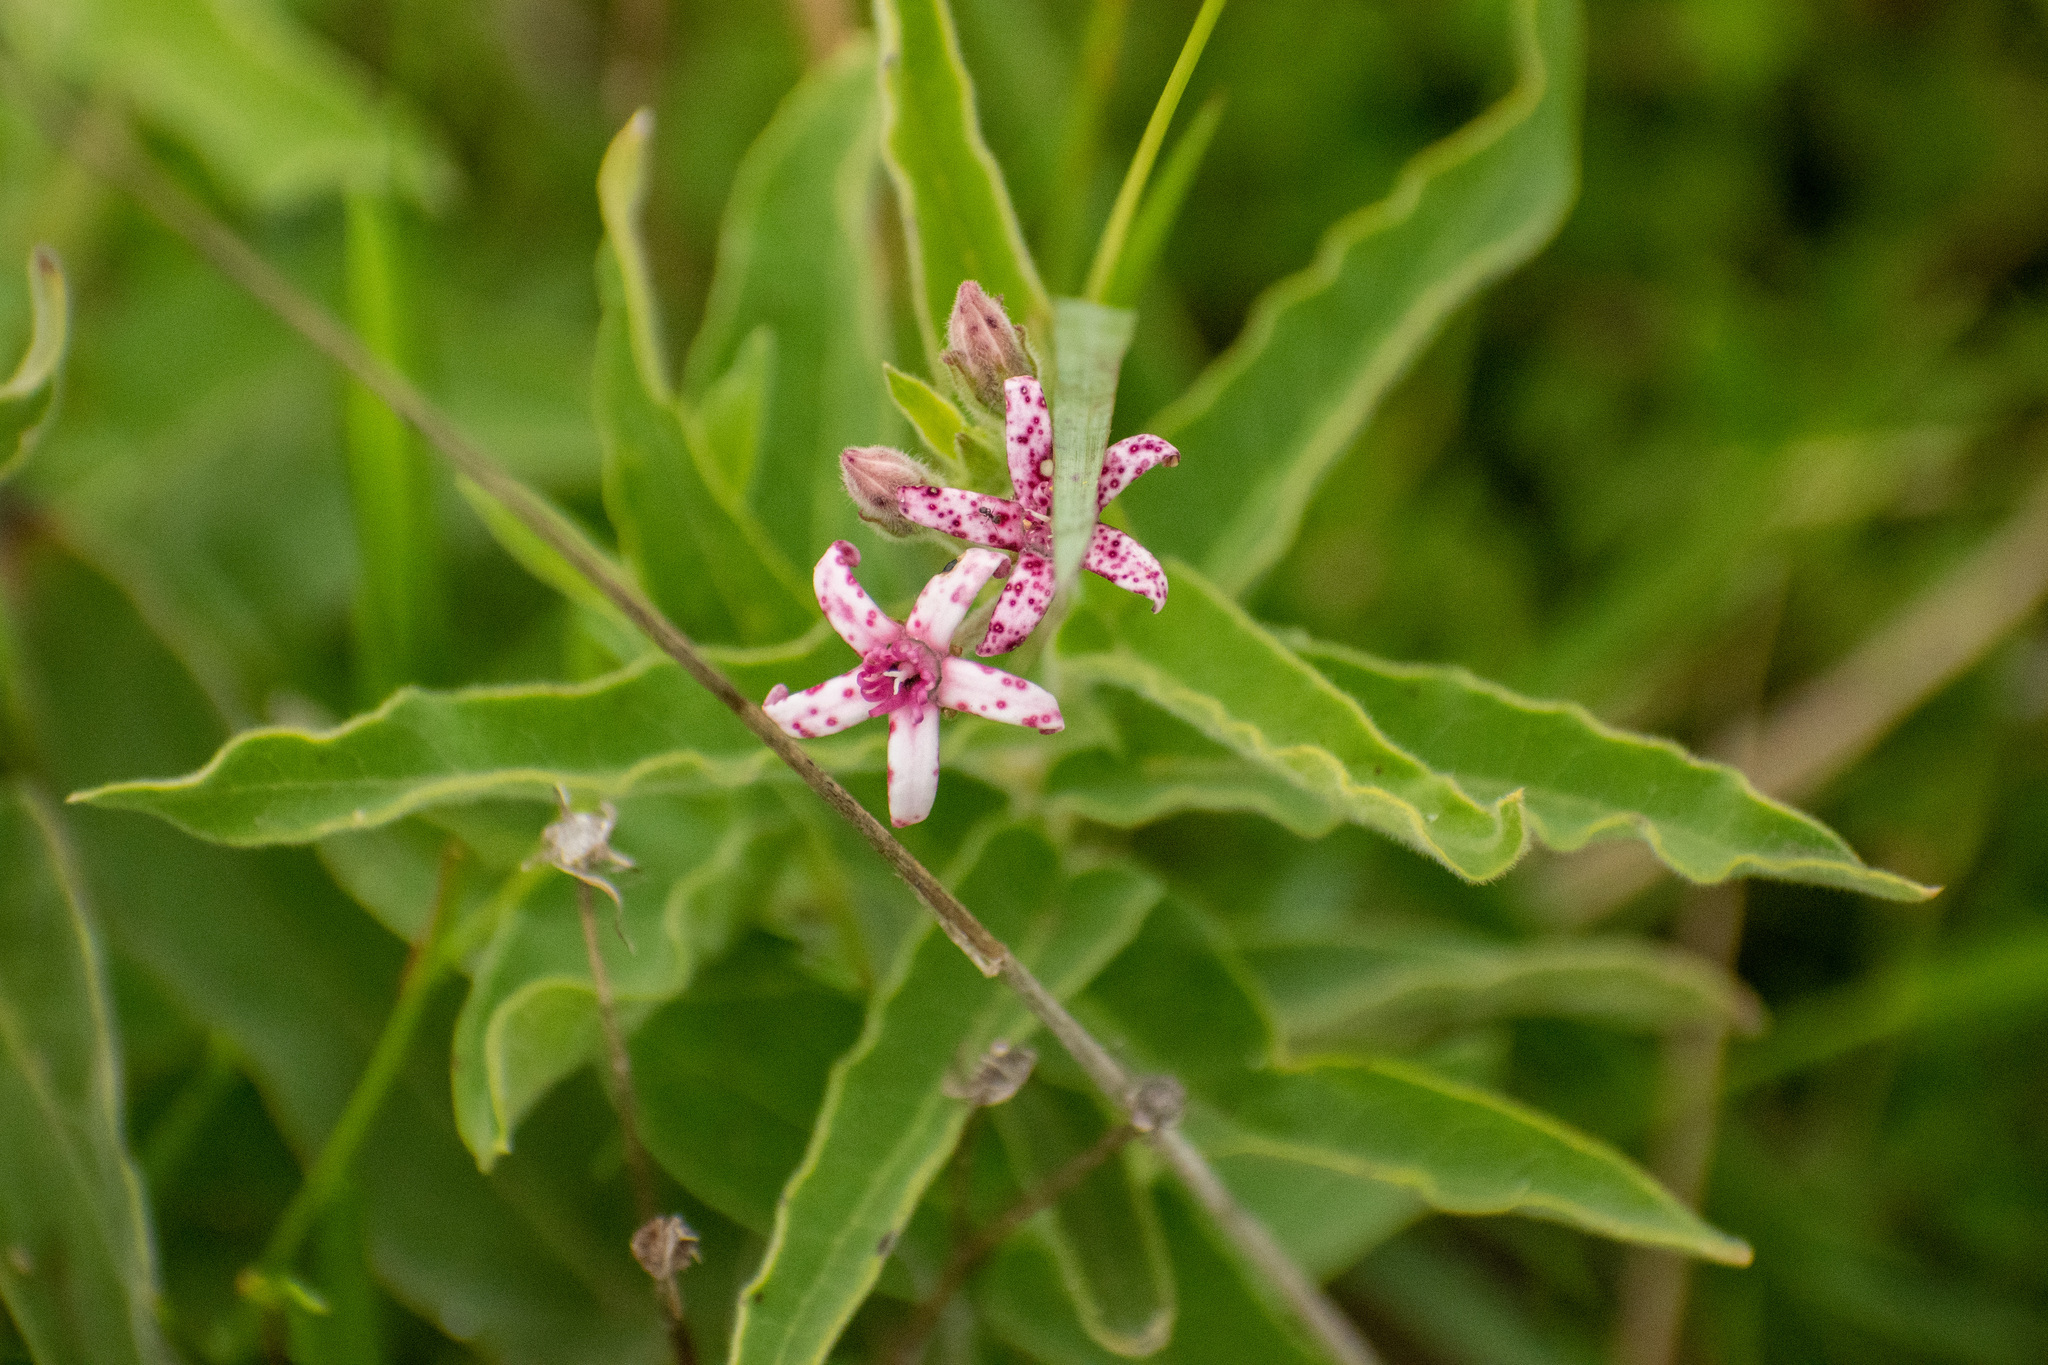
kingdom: Plantae
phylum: Tracheophyta
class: Magnoliopsida
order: Gentianales
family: Apocynaceae
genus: Oxypetalum
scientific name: Oxypetalum solanoides
